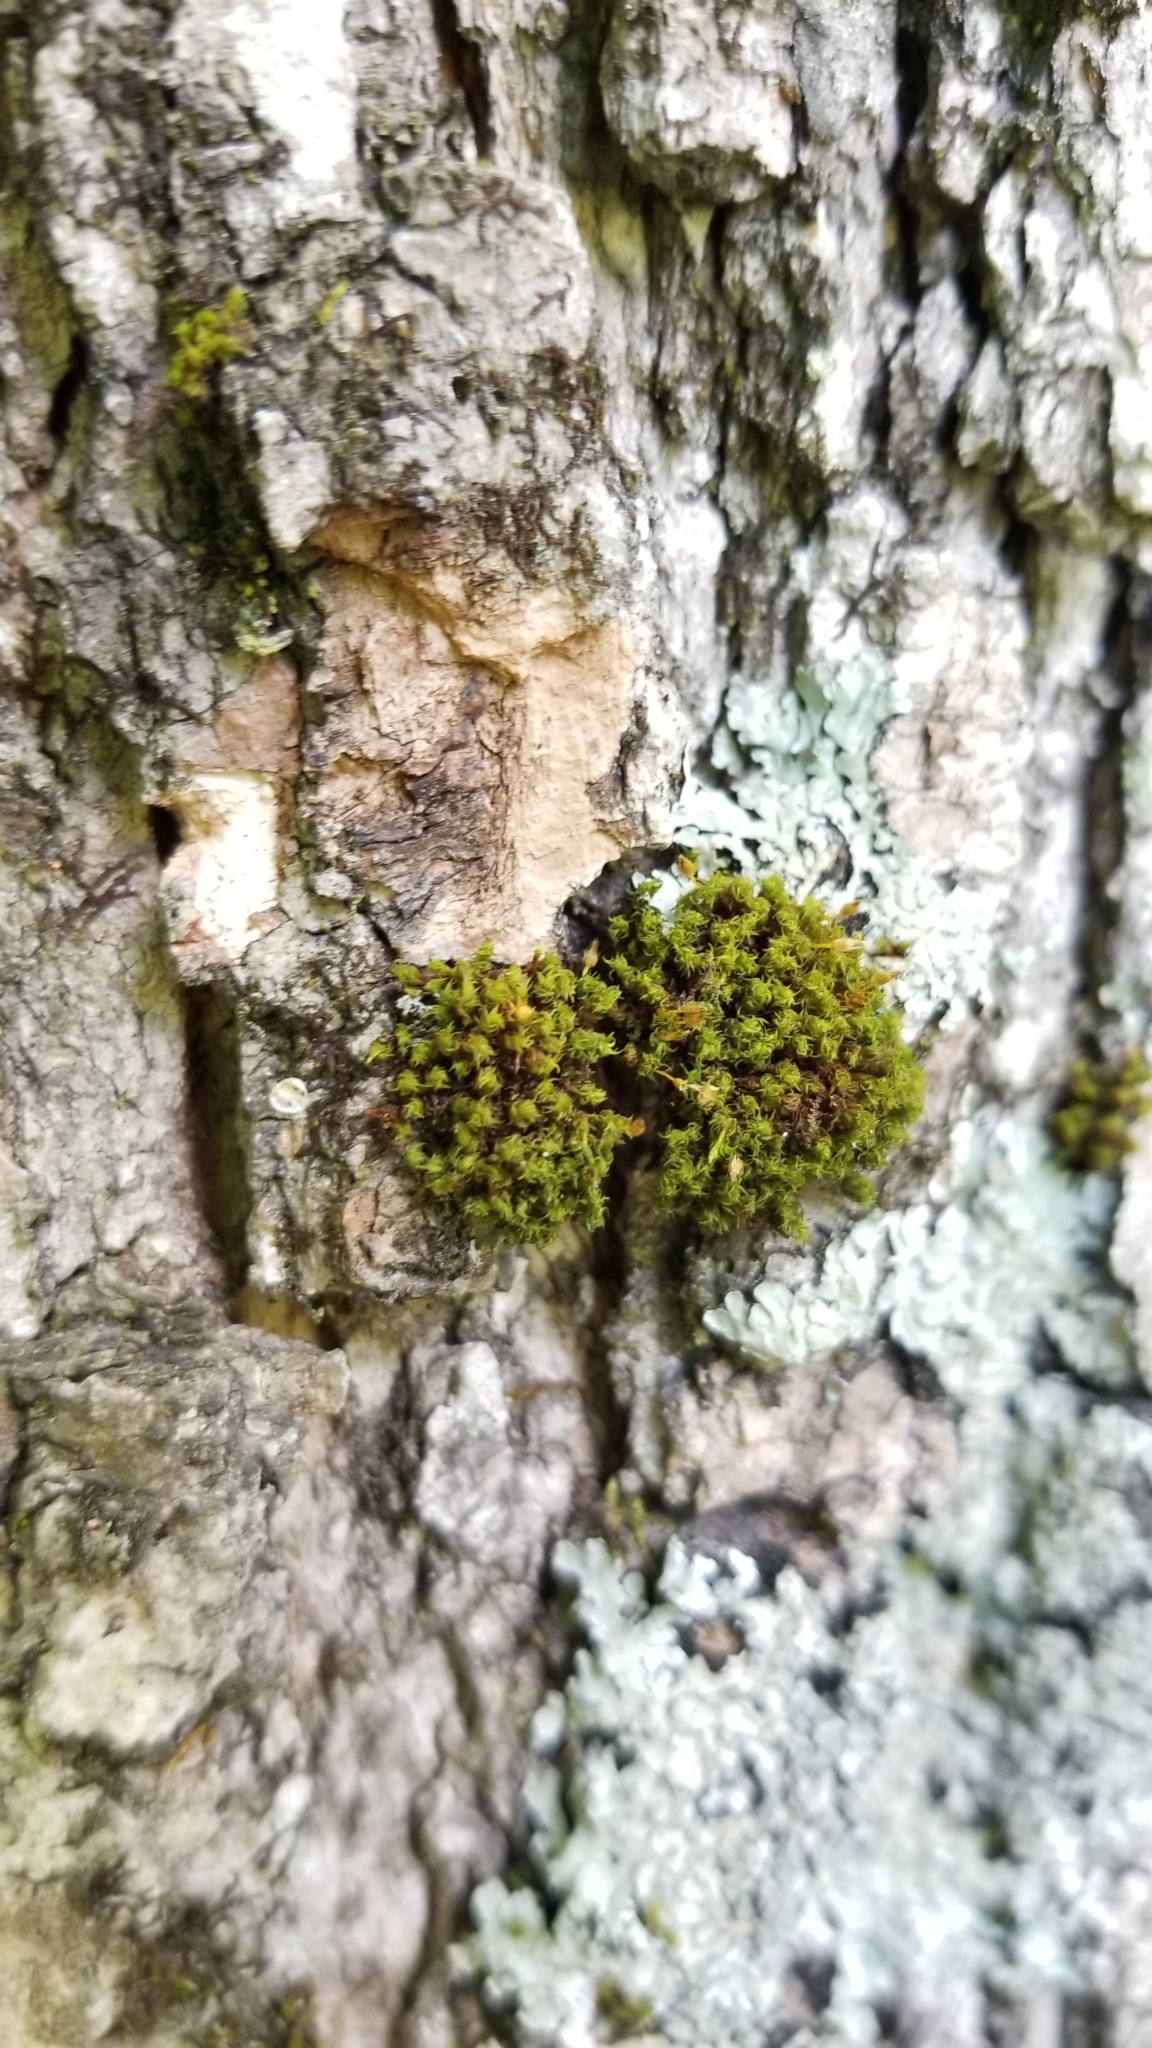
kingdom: Plantae
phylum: Bryophyta
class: Bryopsida
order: Orthotrichales
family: Orthotrichaceae
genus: Ulota
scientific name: Ulota crispa
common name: Crisped pincushion moss
